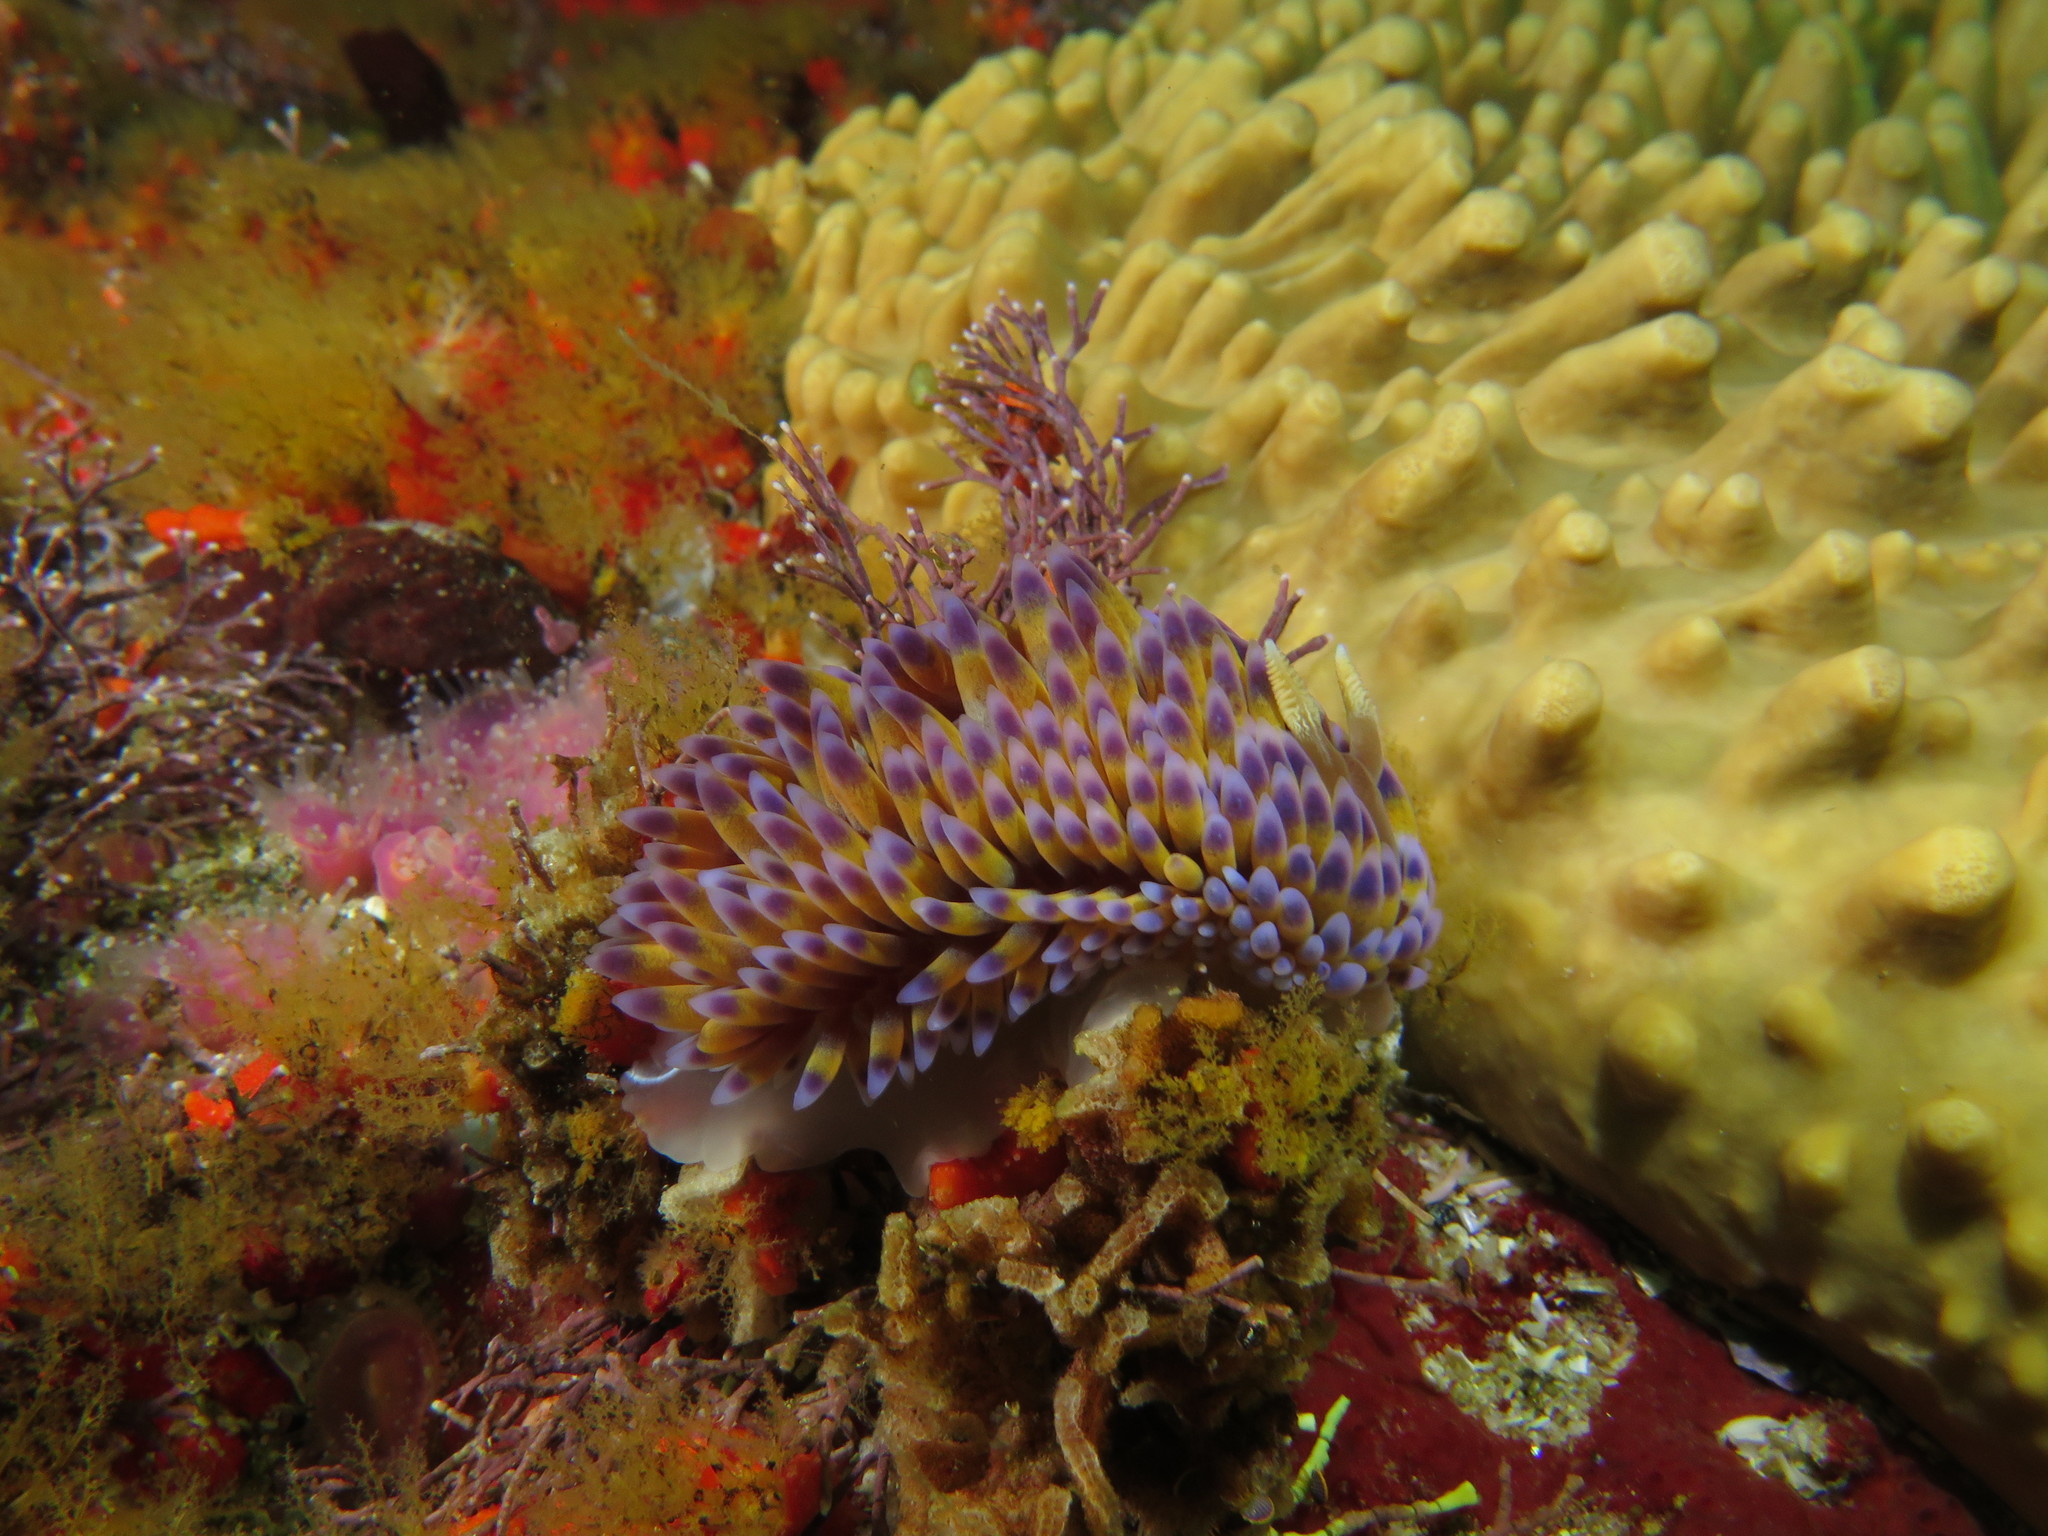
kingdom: Animalia
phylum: Mollusca
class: Gastropoda
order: Nudibranchia
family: Janolidae
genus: Bonisa
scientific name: Bonisa nakaza
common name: Gas flame nudibranch
